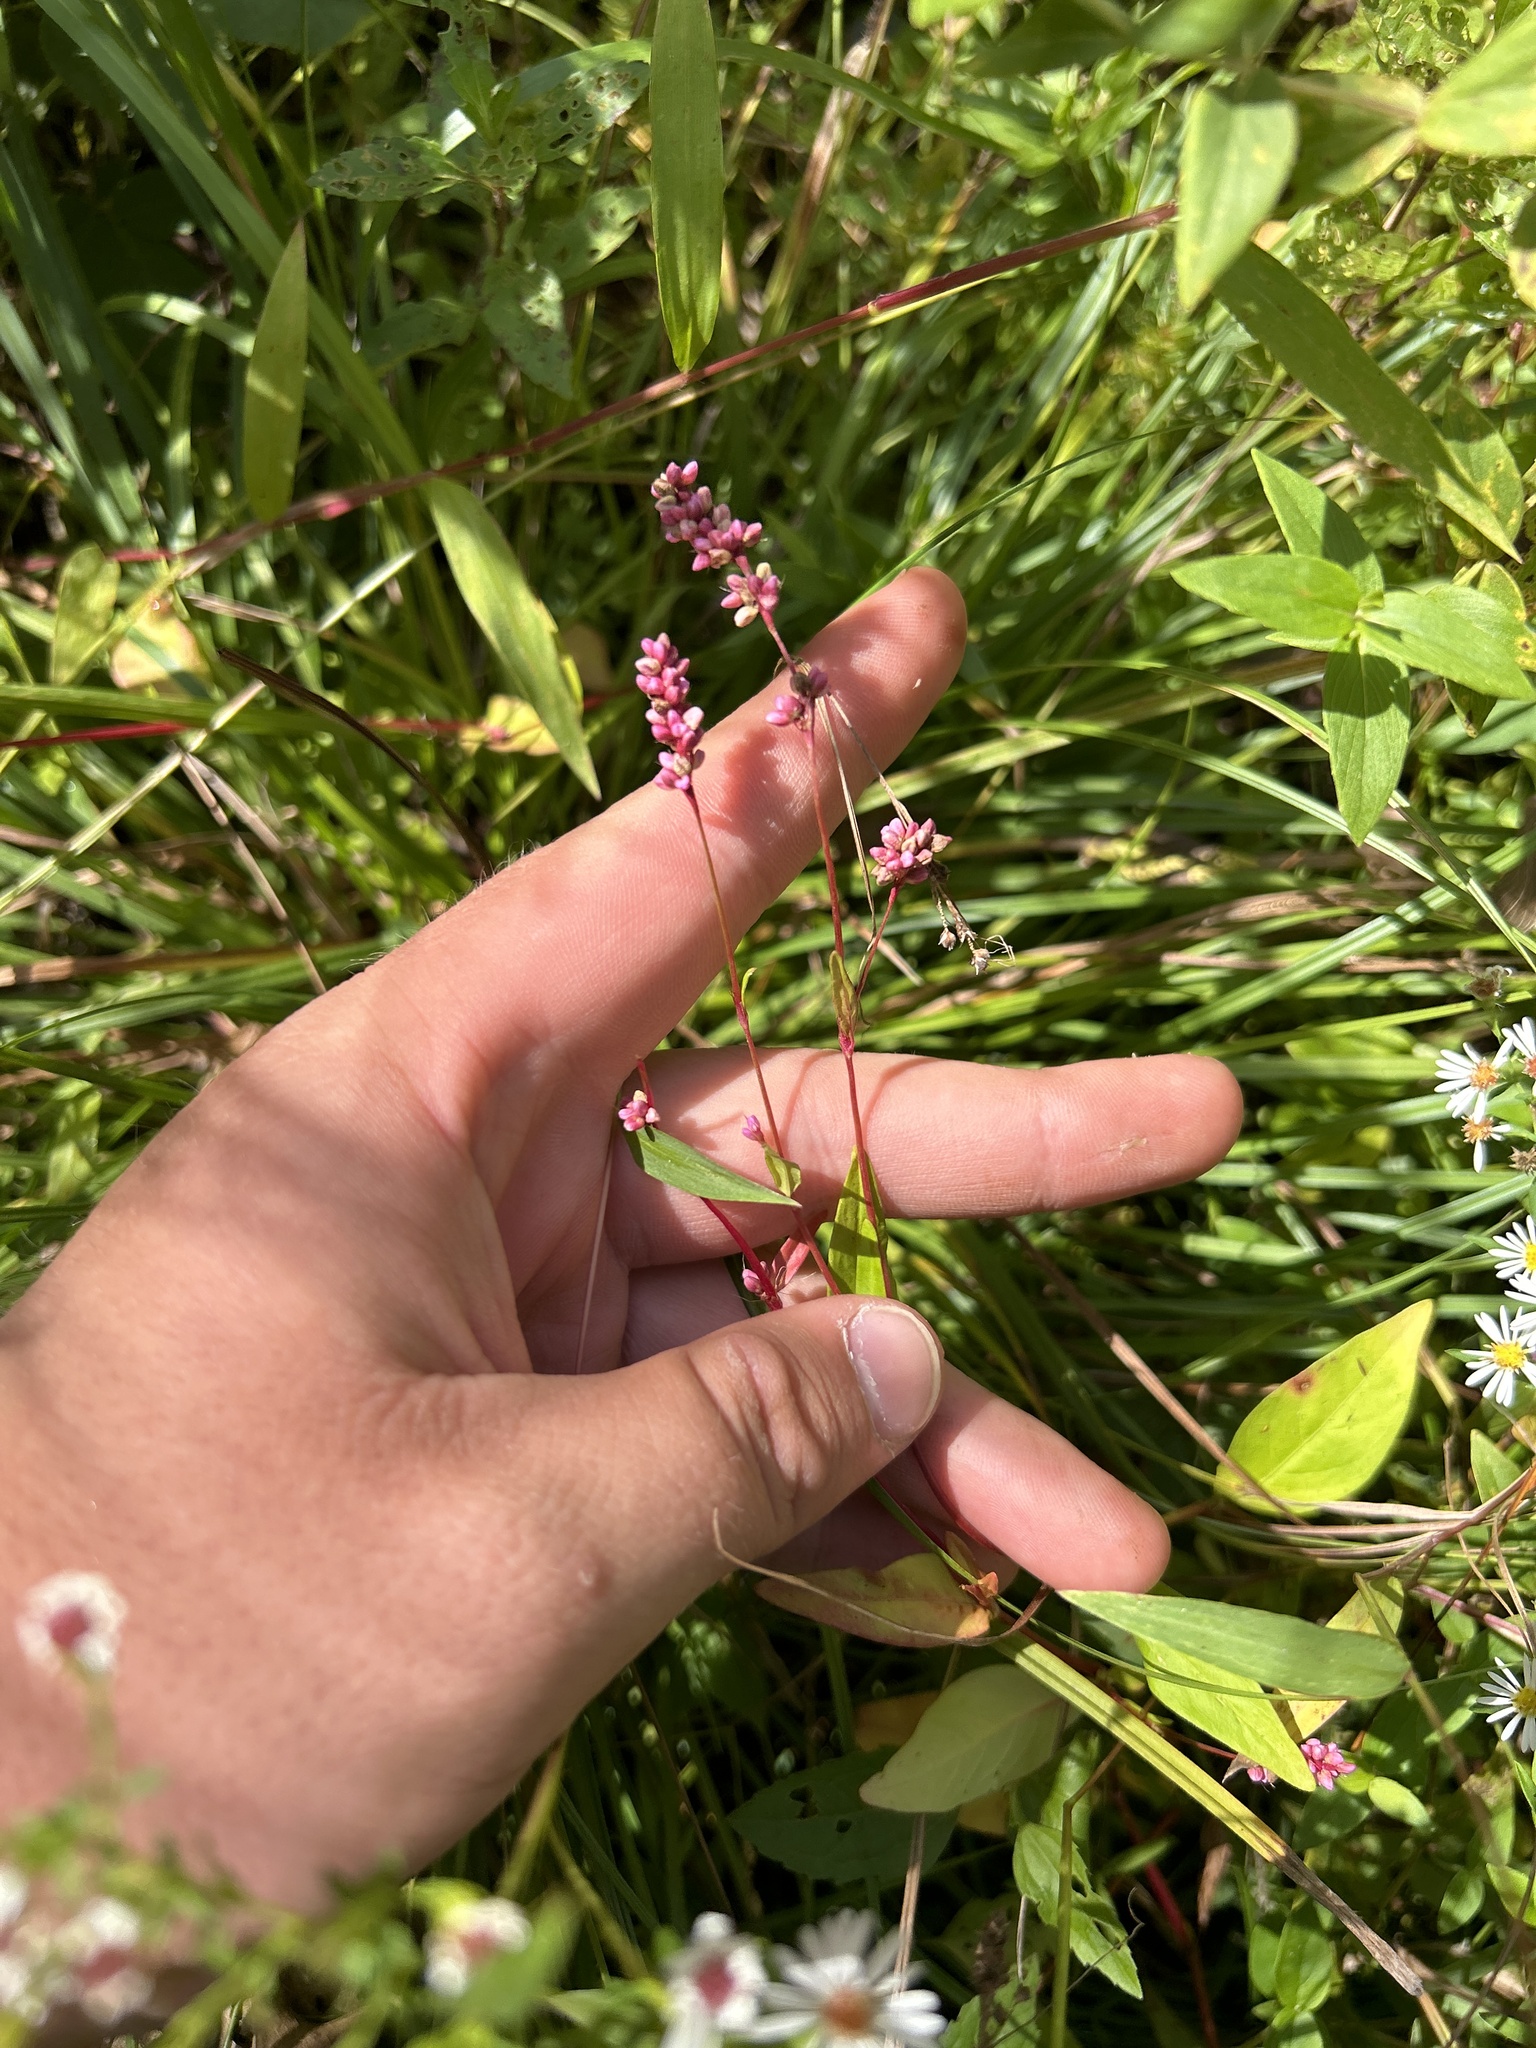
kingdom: Plantae
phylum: Tracheophyta
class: Magnoliopsida
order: Caryophyllales
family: Polygonaceae
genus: Persicaria
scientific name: Persicaria longiseta
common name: Bristly lady's-thumb
